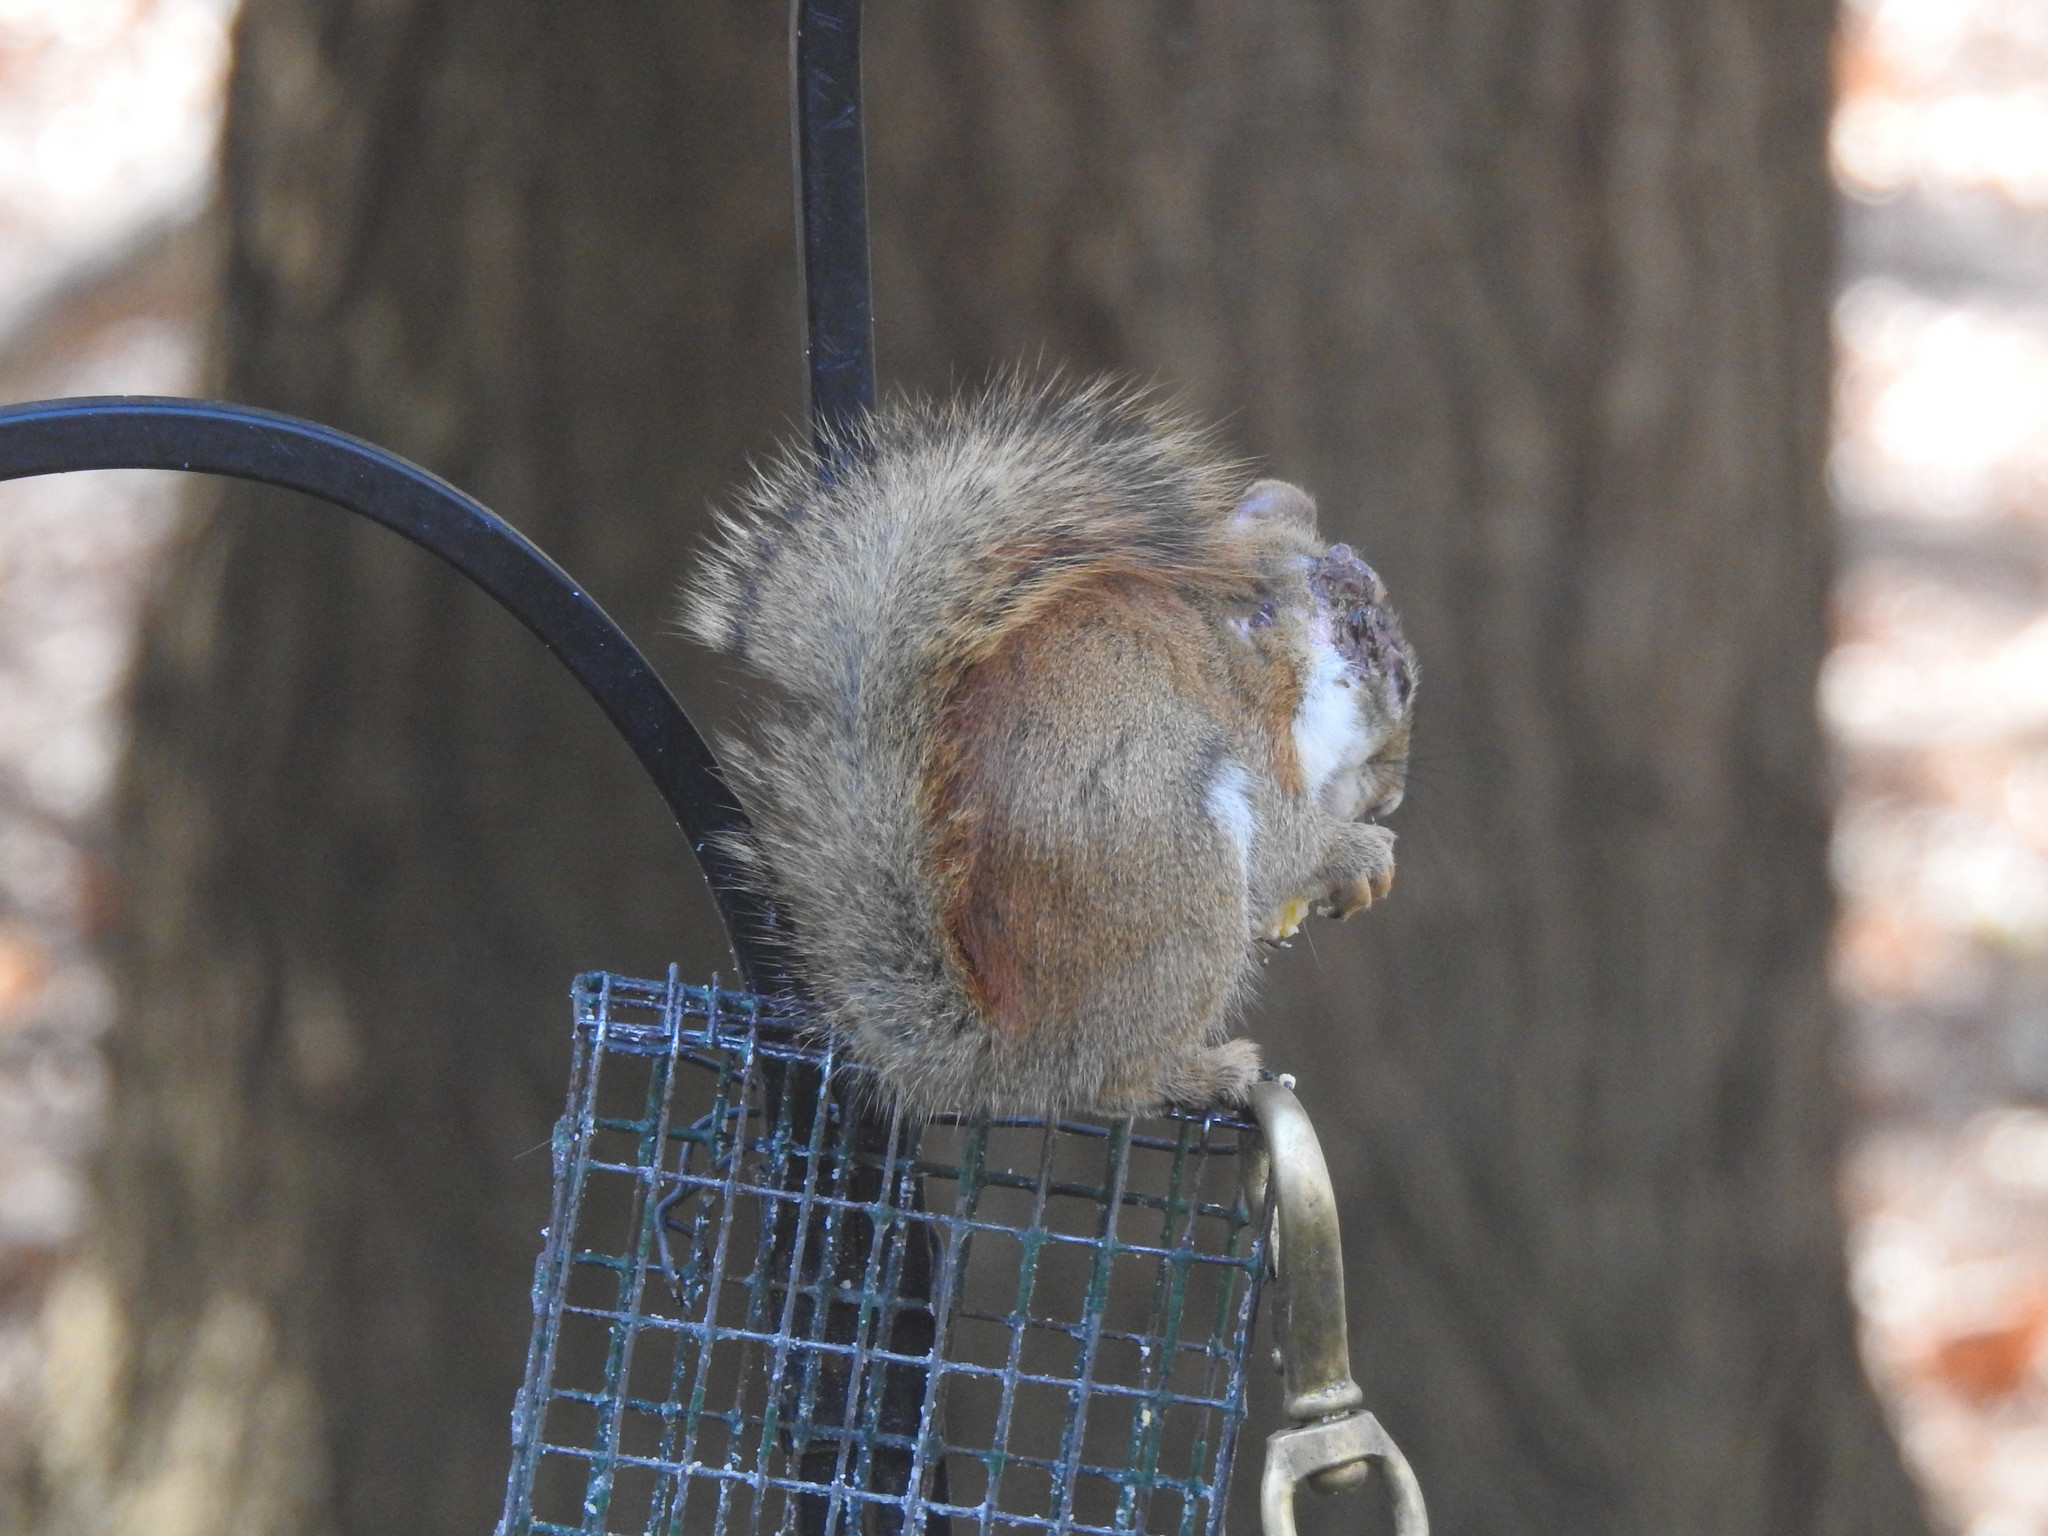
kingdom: Animalia
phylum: Chordata
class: Mammalia
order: Rodentia
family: Sciuridae
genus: Tamiasciurus
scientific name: Tamiasciurus hudsonicus
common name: Red squirrel
